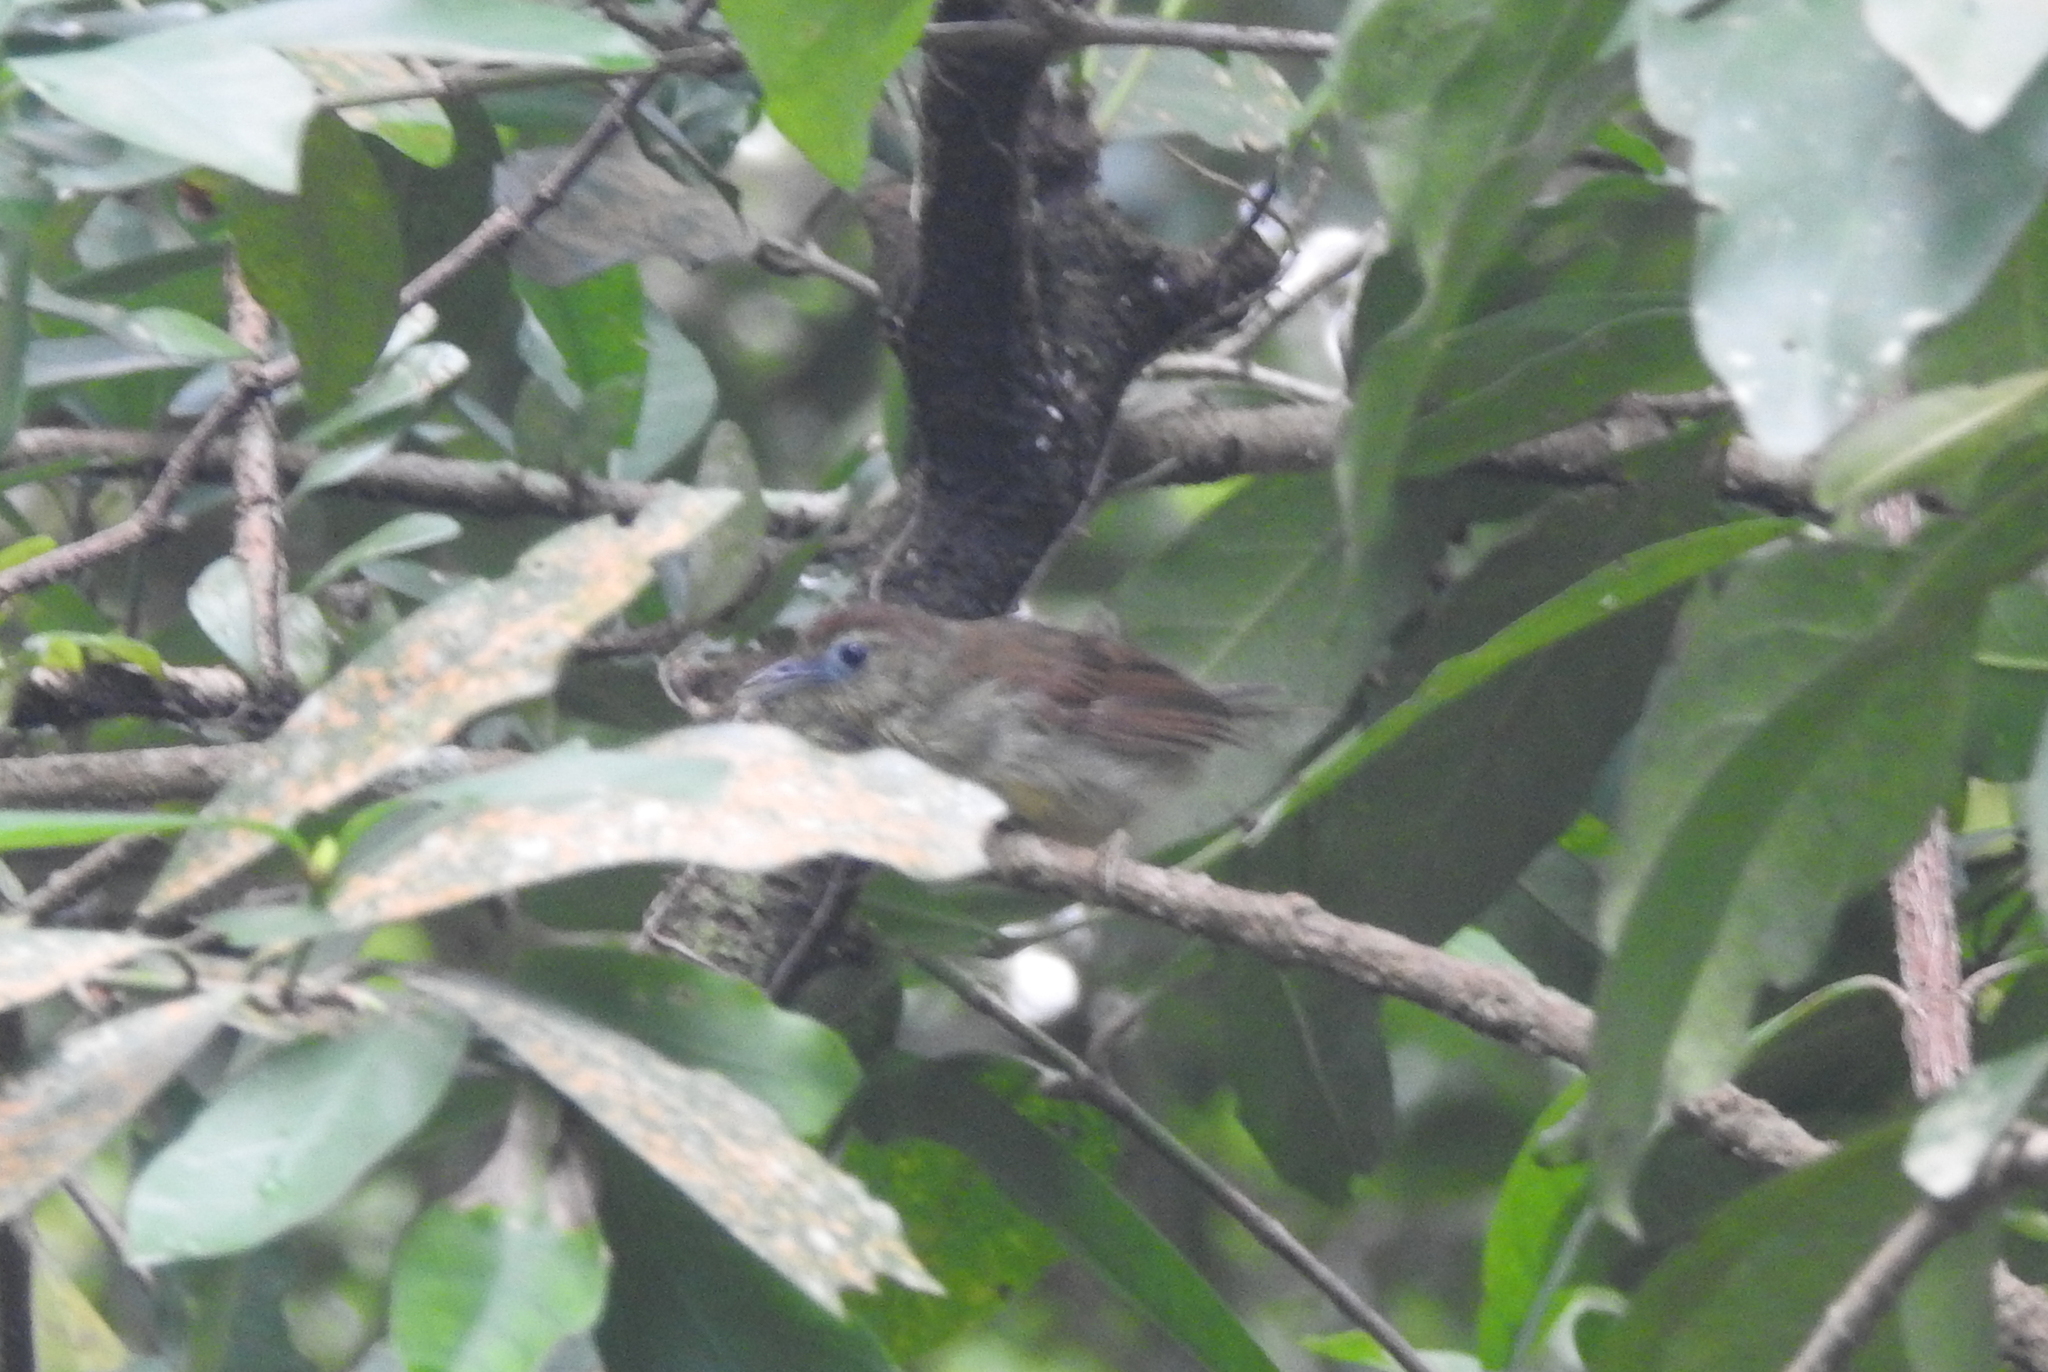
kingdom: Animalia
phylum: Chordata
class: Aves
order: Passeriformes
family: Timaliidae
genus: Macronus
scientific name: Macronus gularis
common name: Striped tit-babbler
